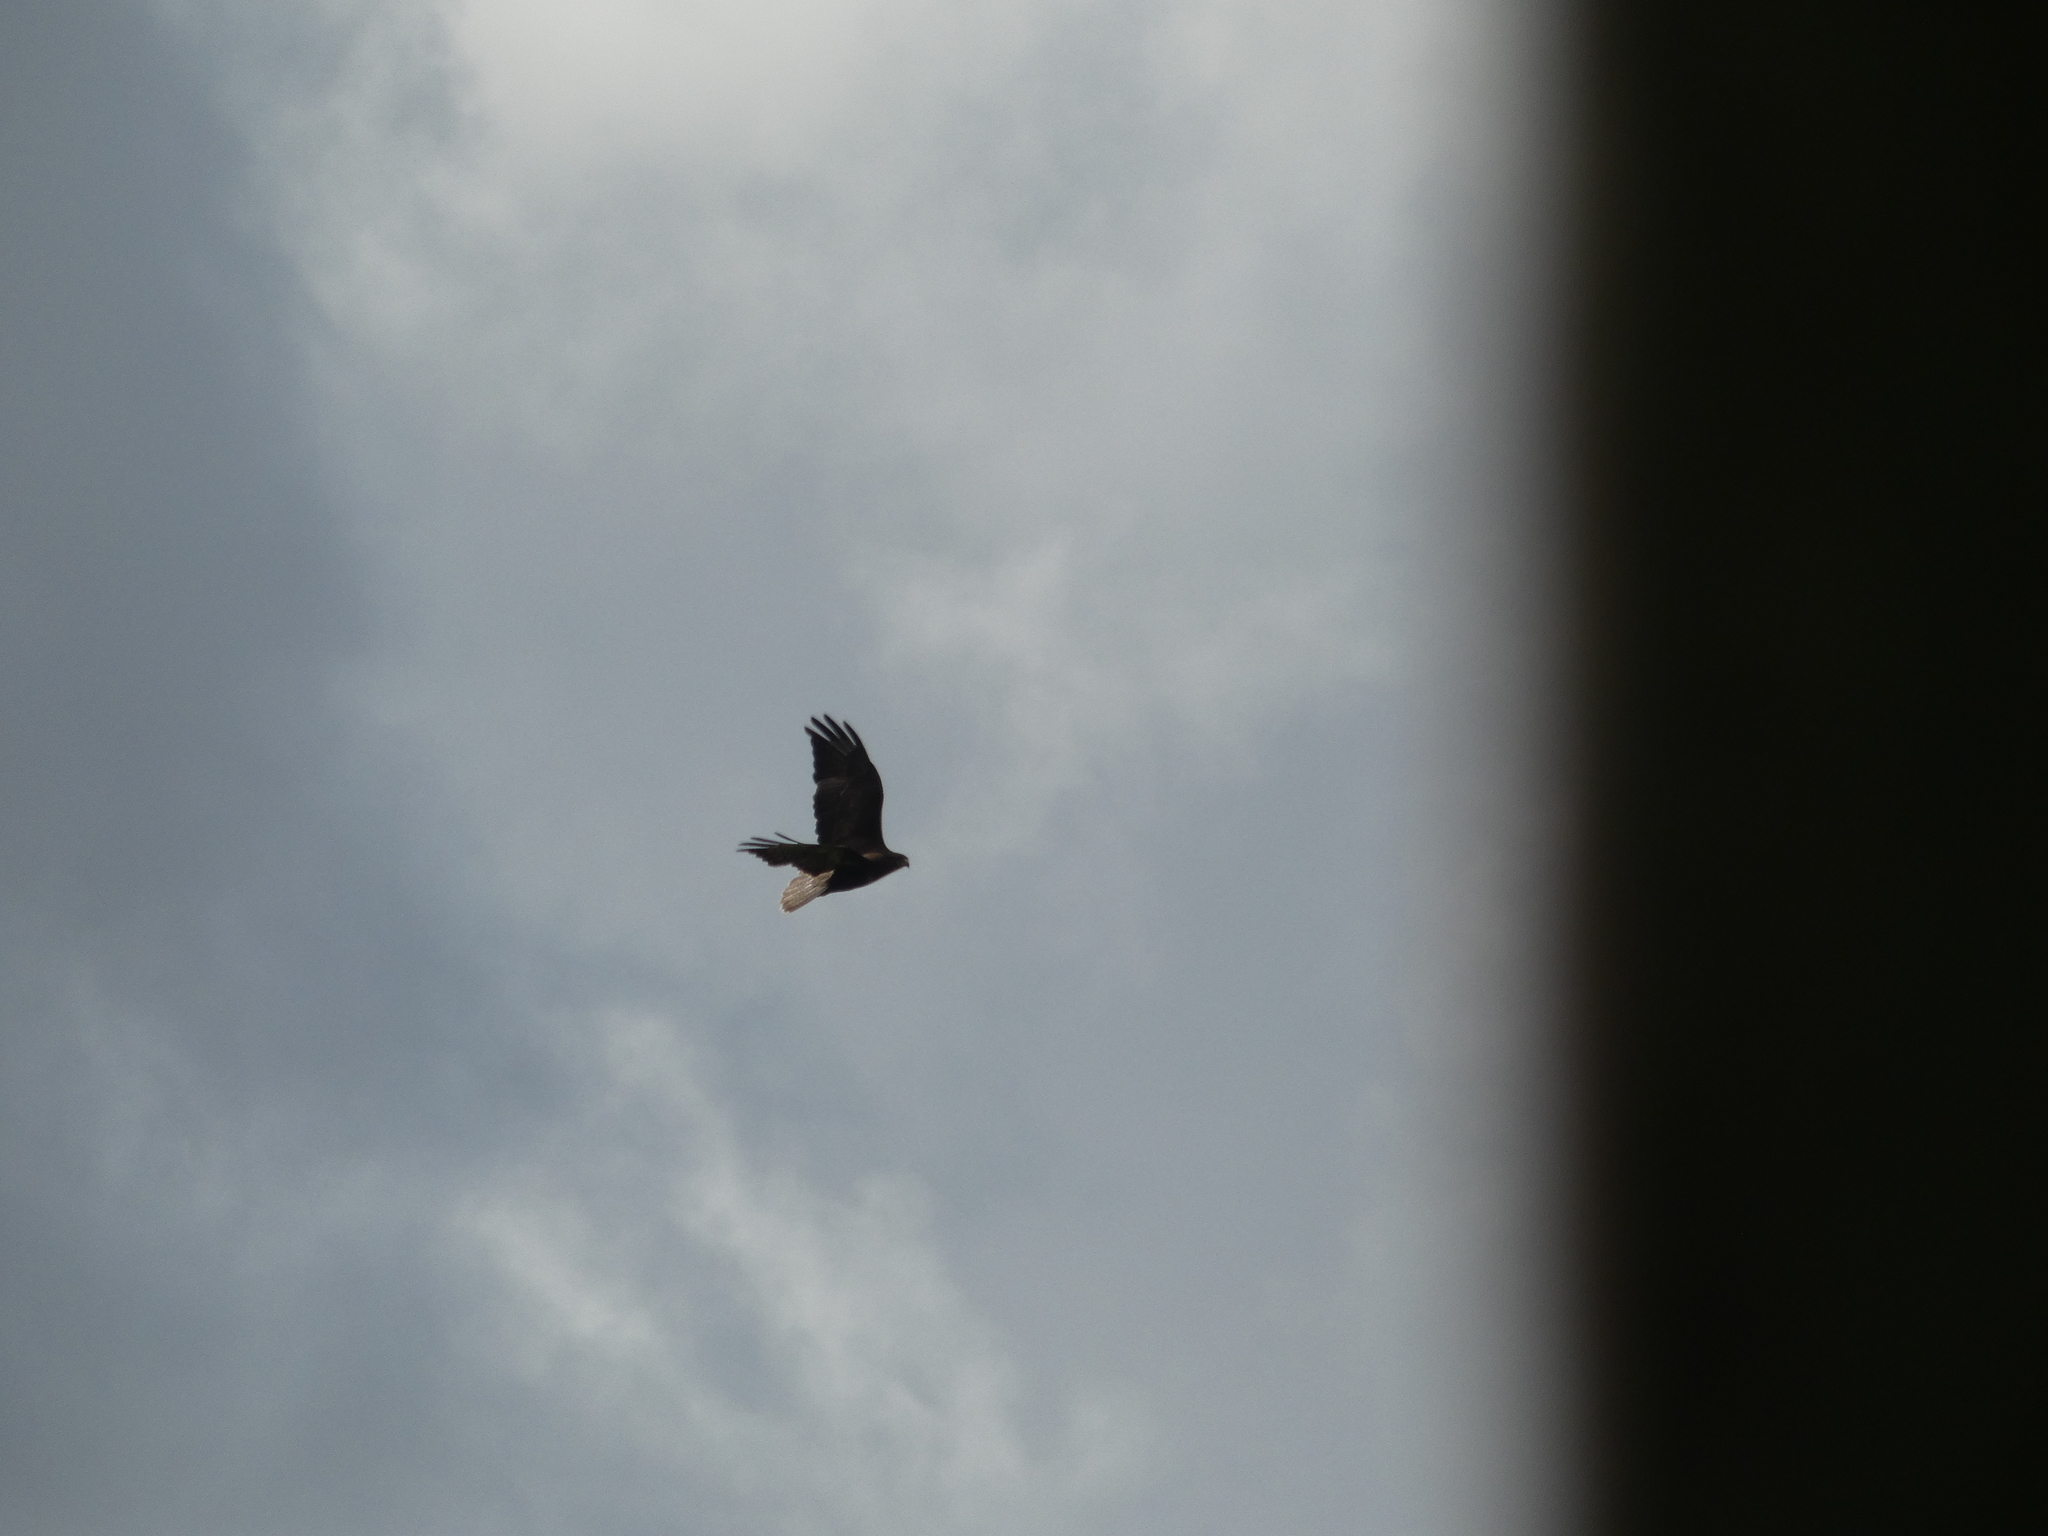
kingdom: Animalia
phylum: Chordata
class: Aves
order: Accipitriformes
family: Accipitridae
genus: Buteo
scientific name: Buteo buteo
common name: Common buzzard
